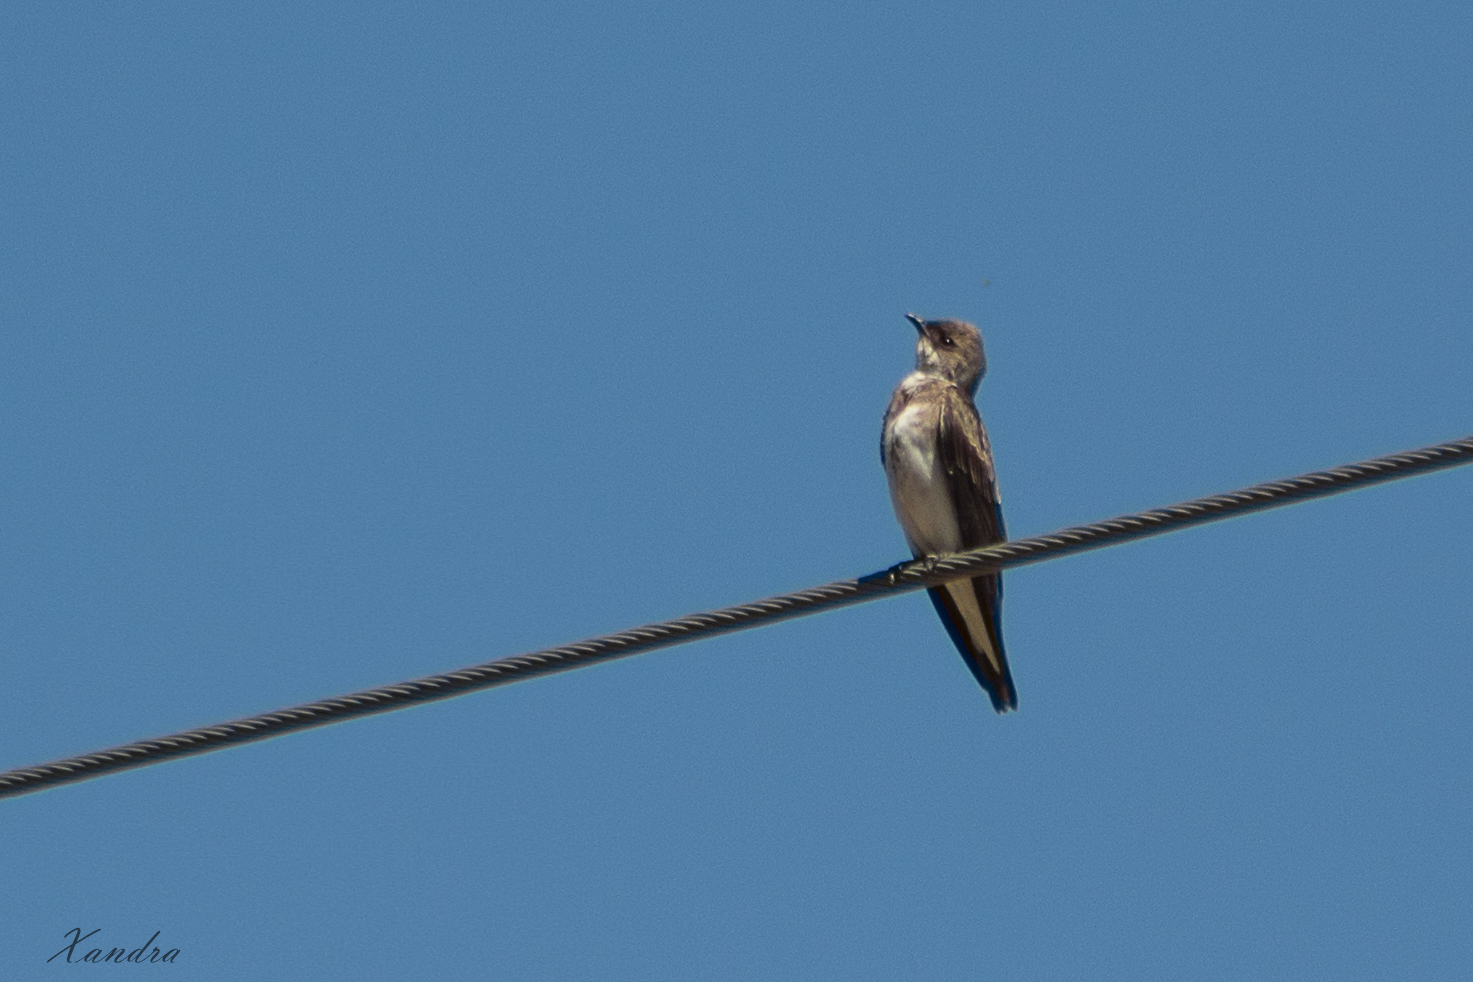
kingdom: Animalia
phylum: Chordata
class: Aves
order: Passeriformes
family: Hirundinidae
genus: Progne
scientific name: Progne tapera
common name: Brown-chested martin
